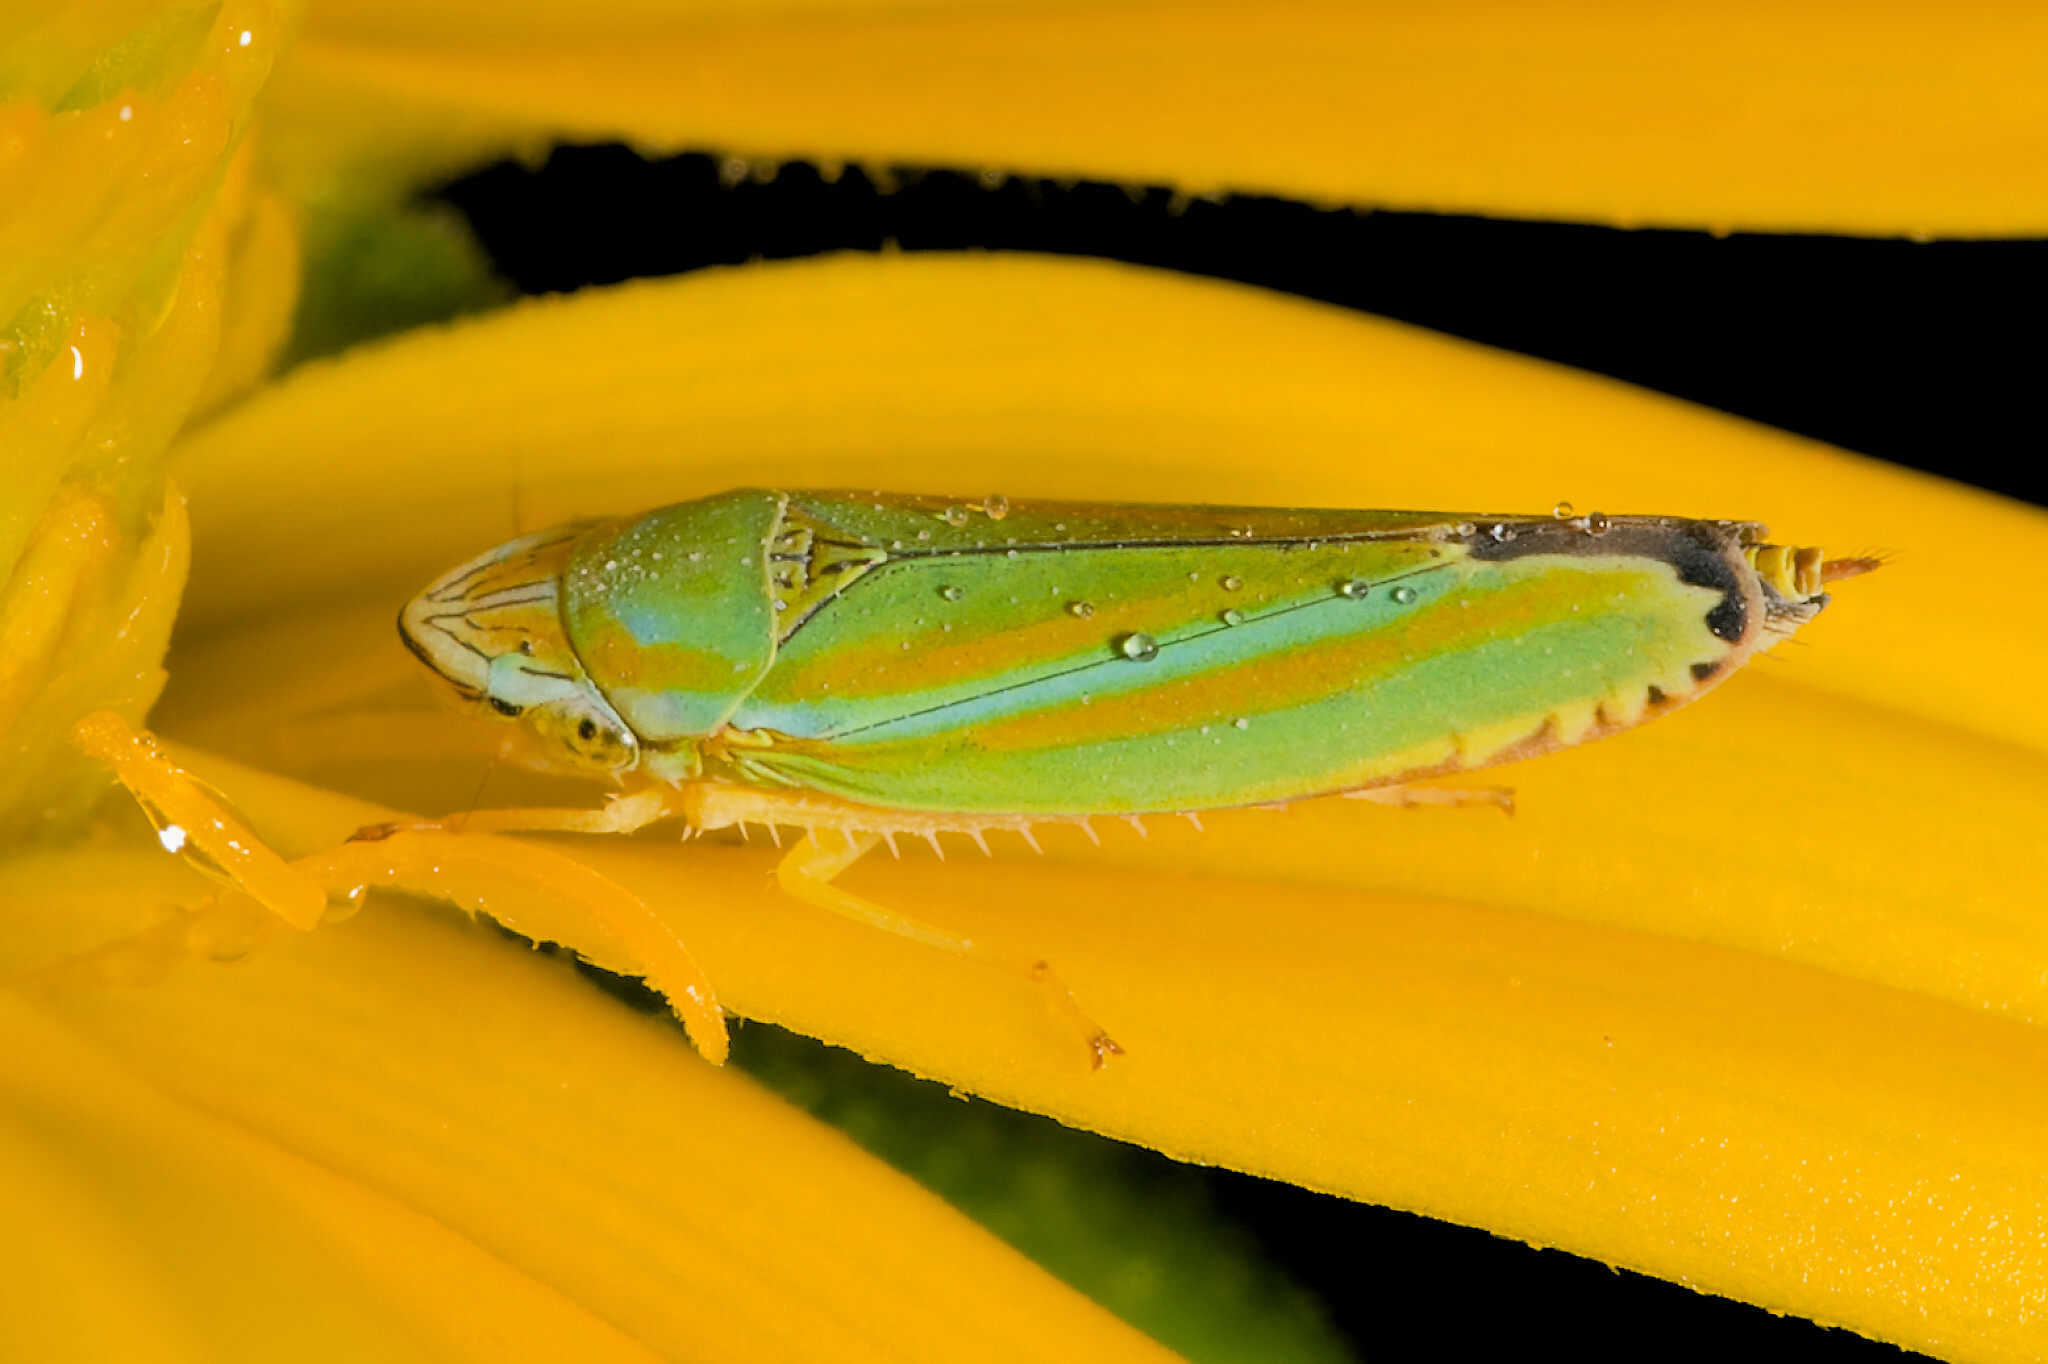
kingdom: Animalia
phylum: Arthropoda
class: Insecta
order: Hemiptera
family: Cicadellidae
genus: Graphocephala
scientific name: Graphocephala versuta
